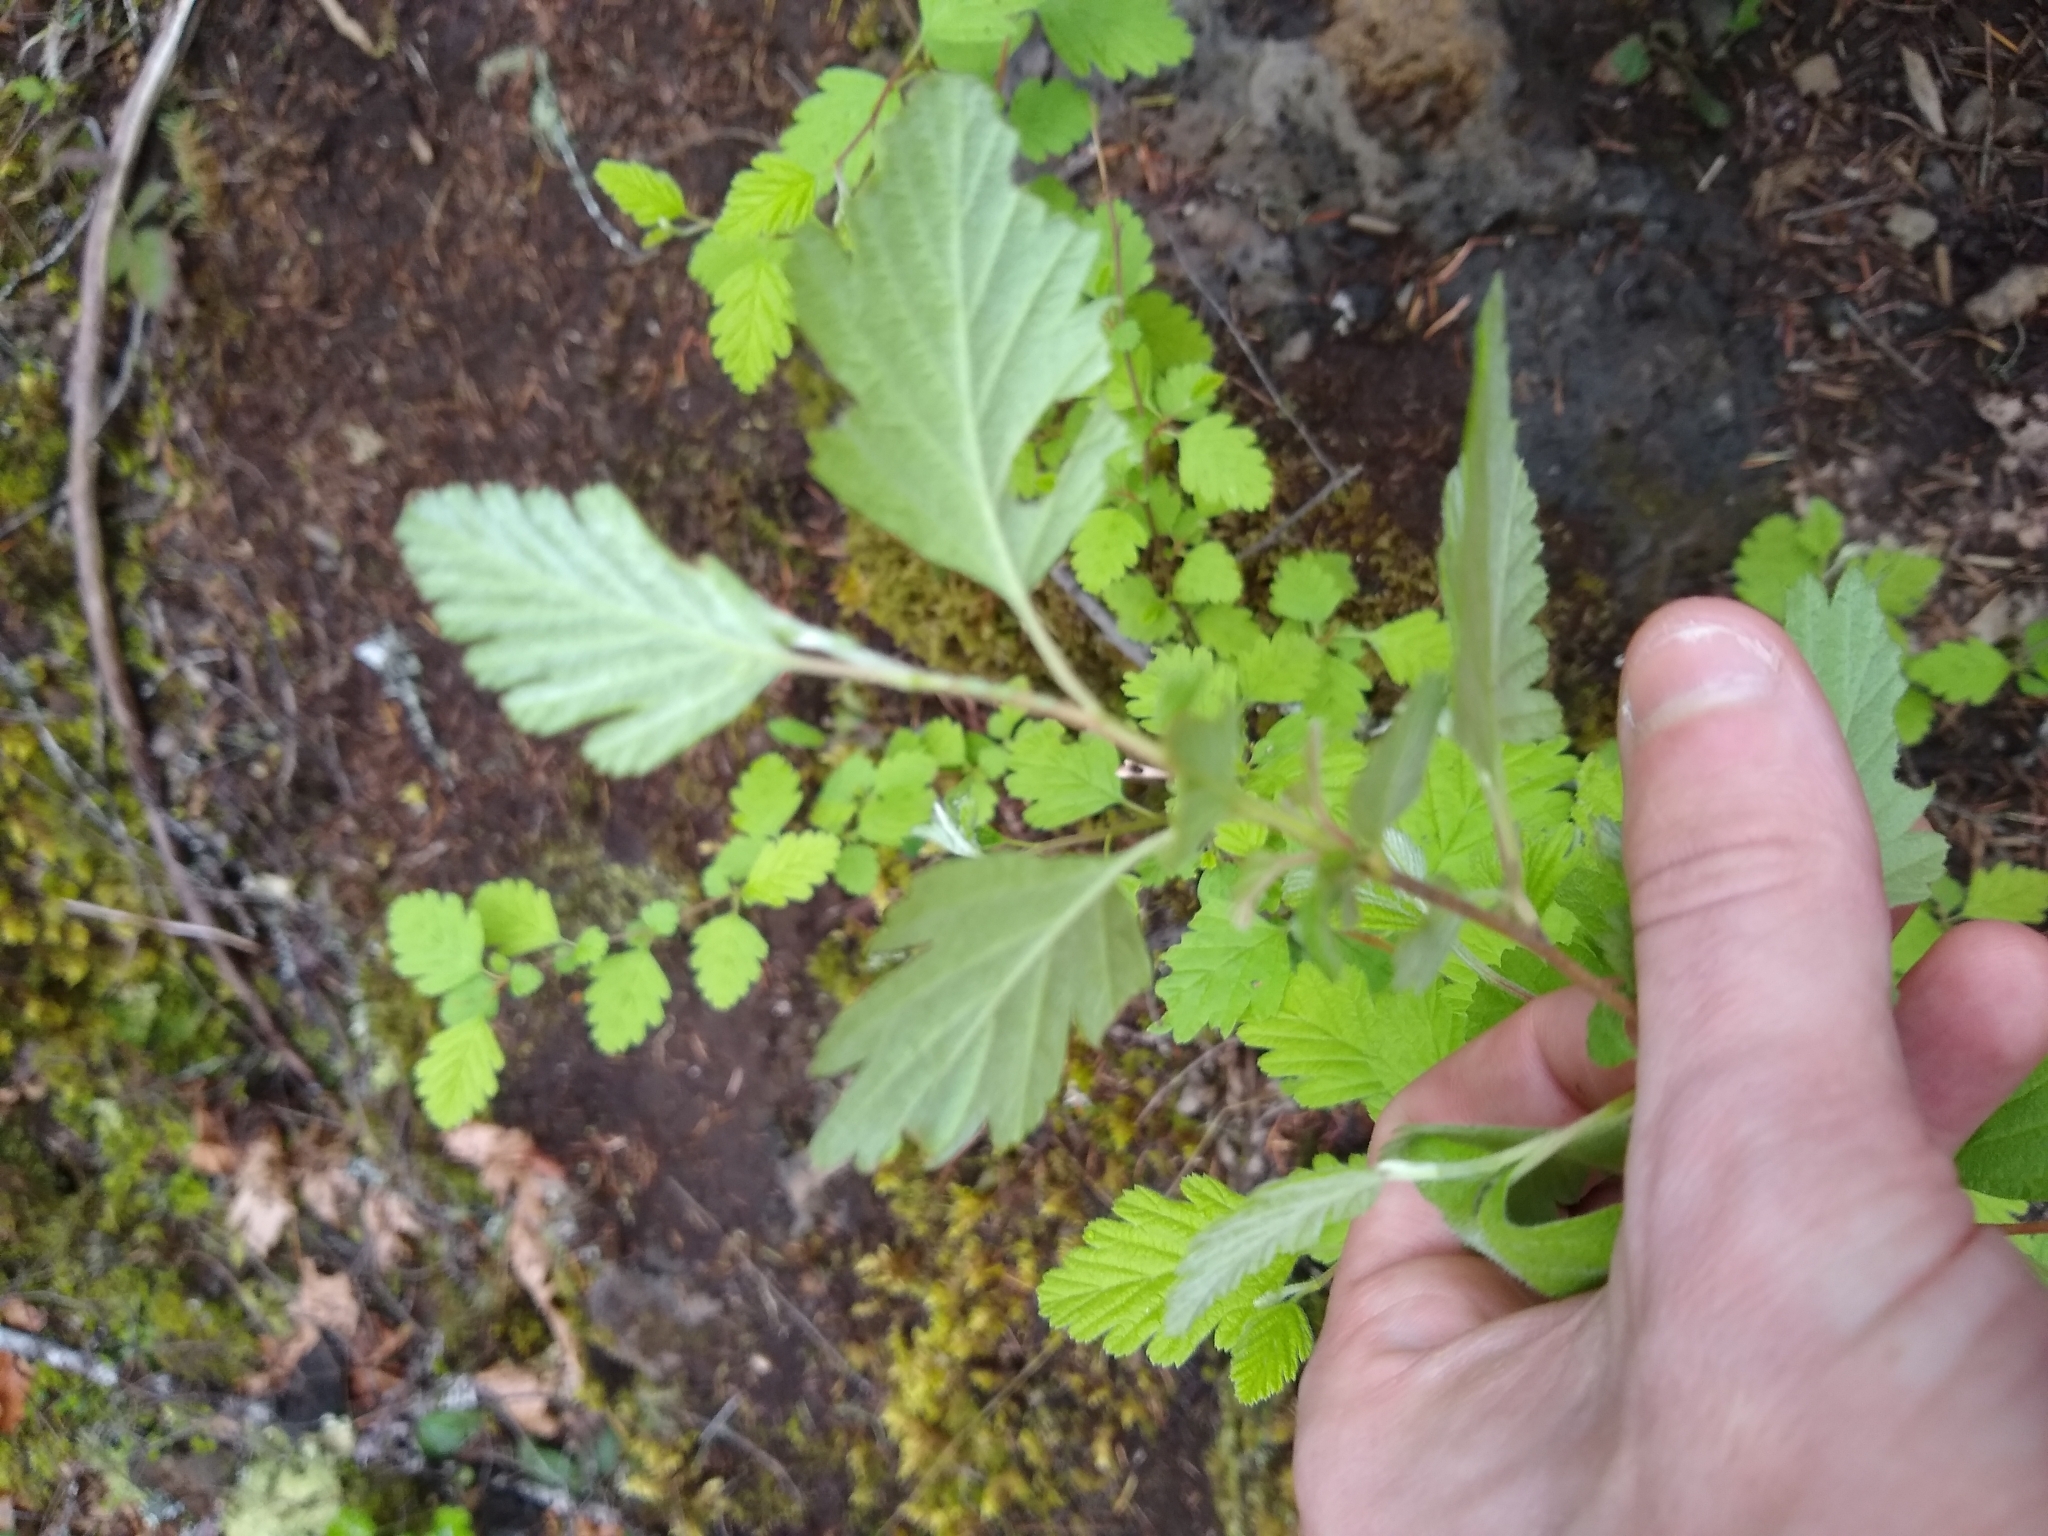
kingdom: Plantae
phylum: Tracheophyta
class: Magnoliopsida
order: Rosales
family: Rosaceae
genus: Holodiscus
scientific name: Holodiscus discolor
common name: Oceanspray
